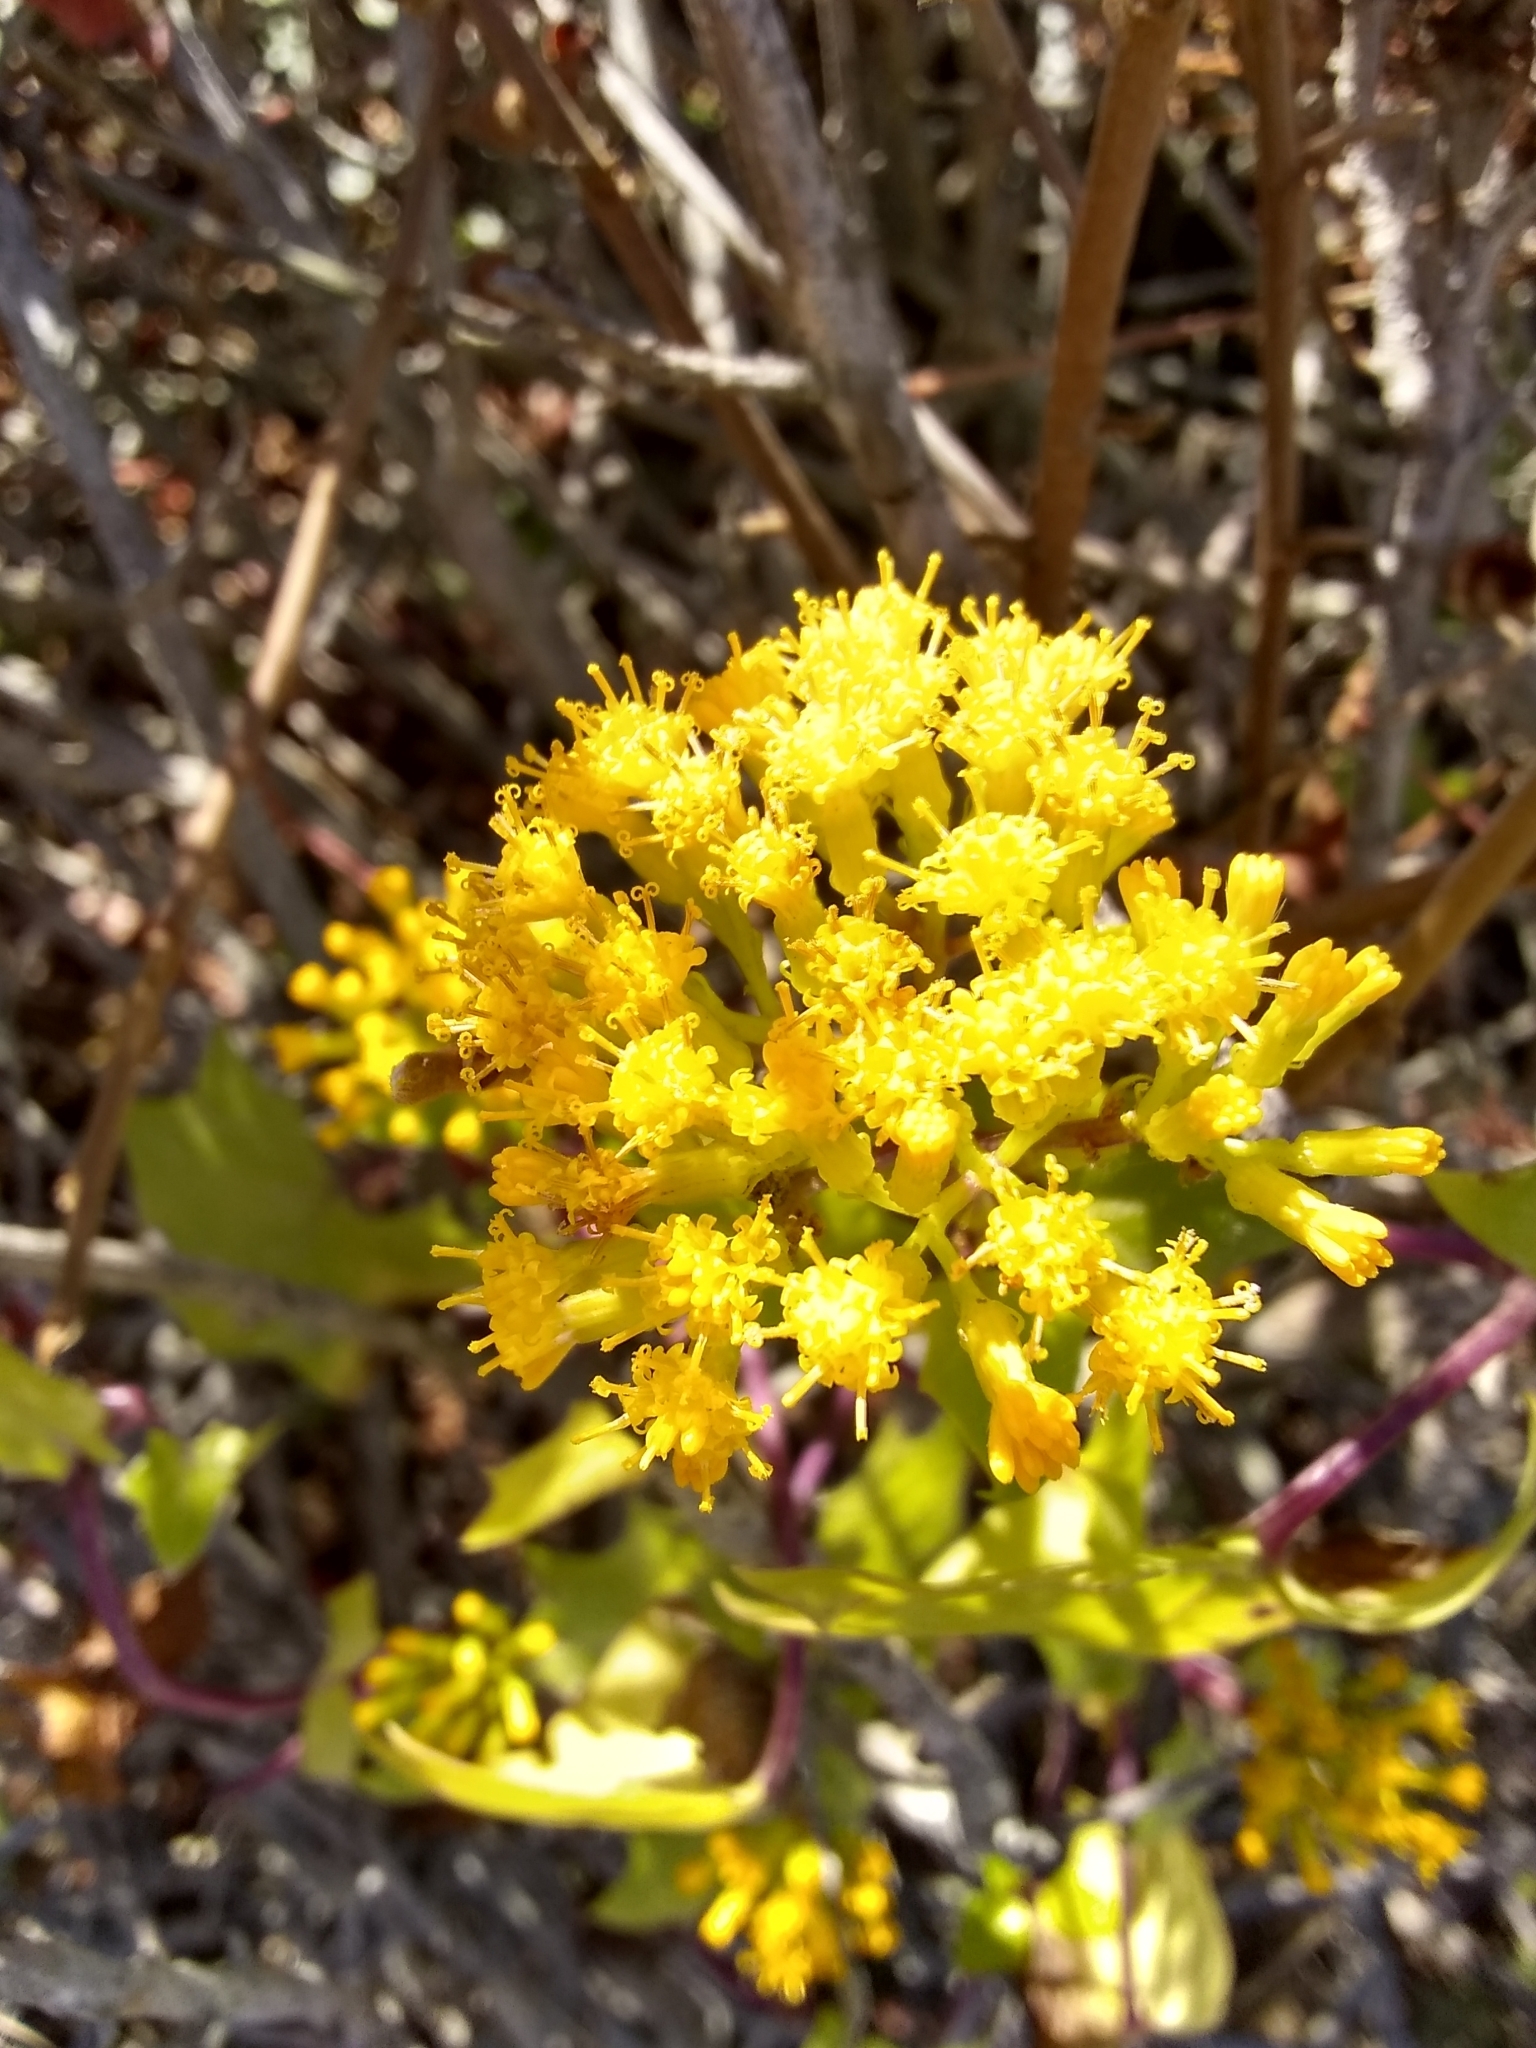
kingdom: Plantae
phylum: Tracheophyta
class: Magnoliopsida
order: Asterales
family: Asteraceae
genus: Delairea
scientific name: Delairea odorata
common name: Cape-ivy
